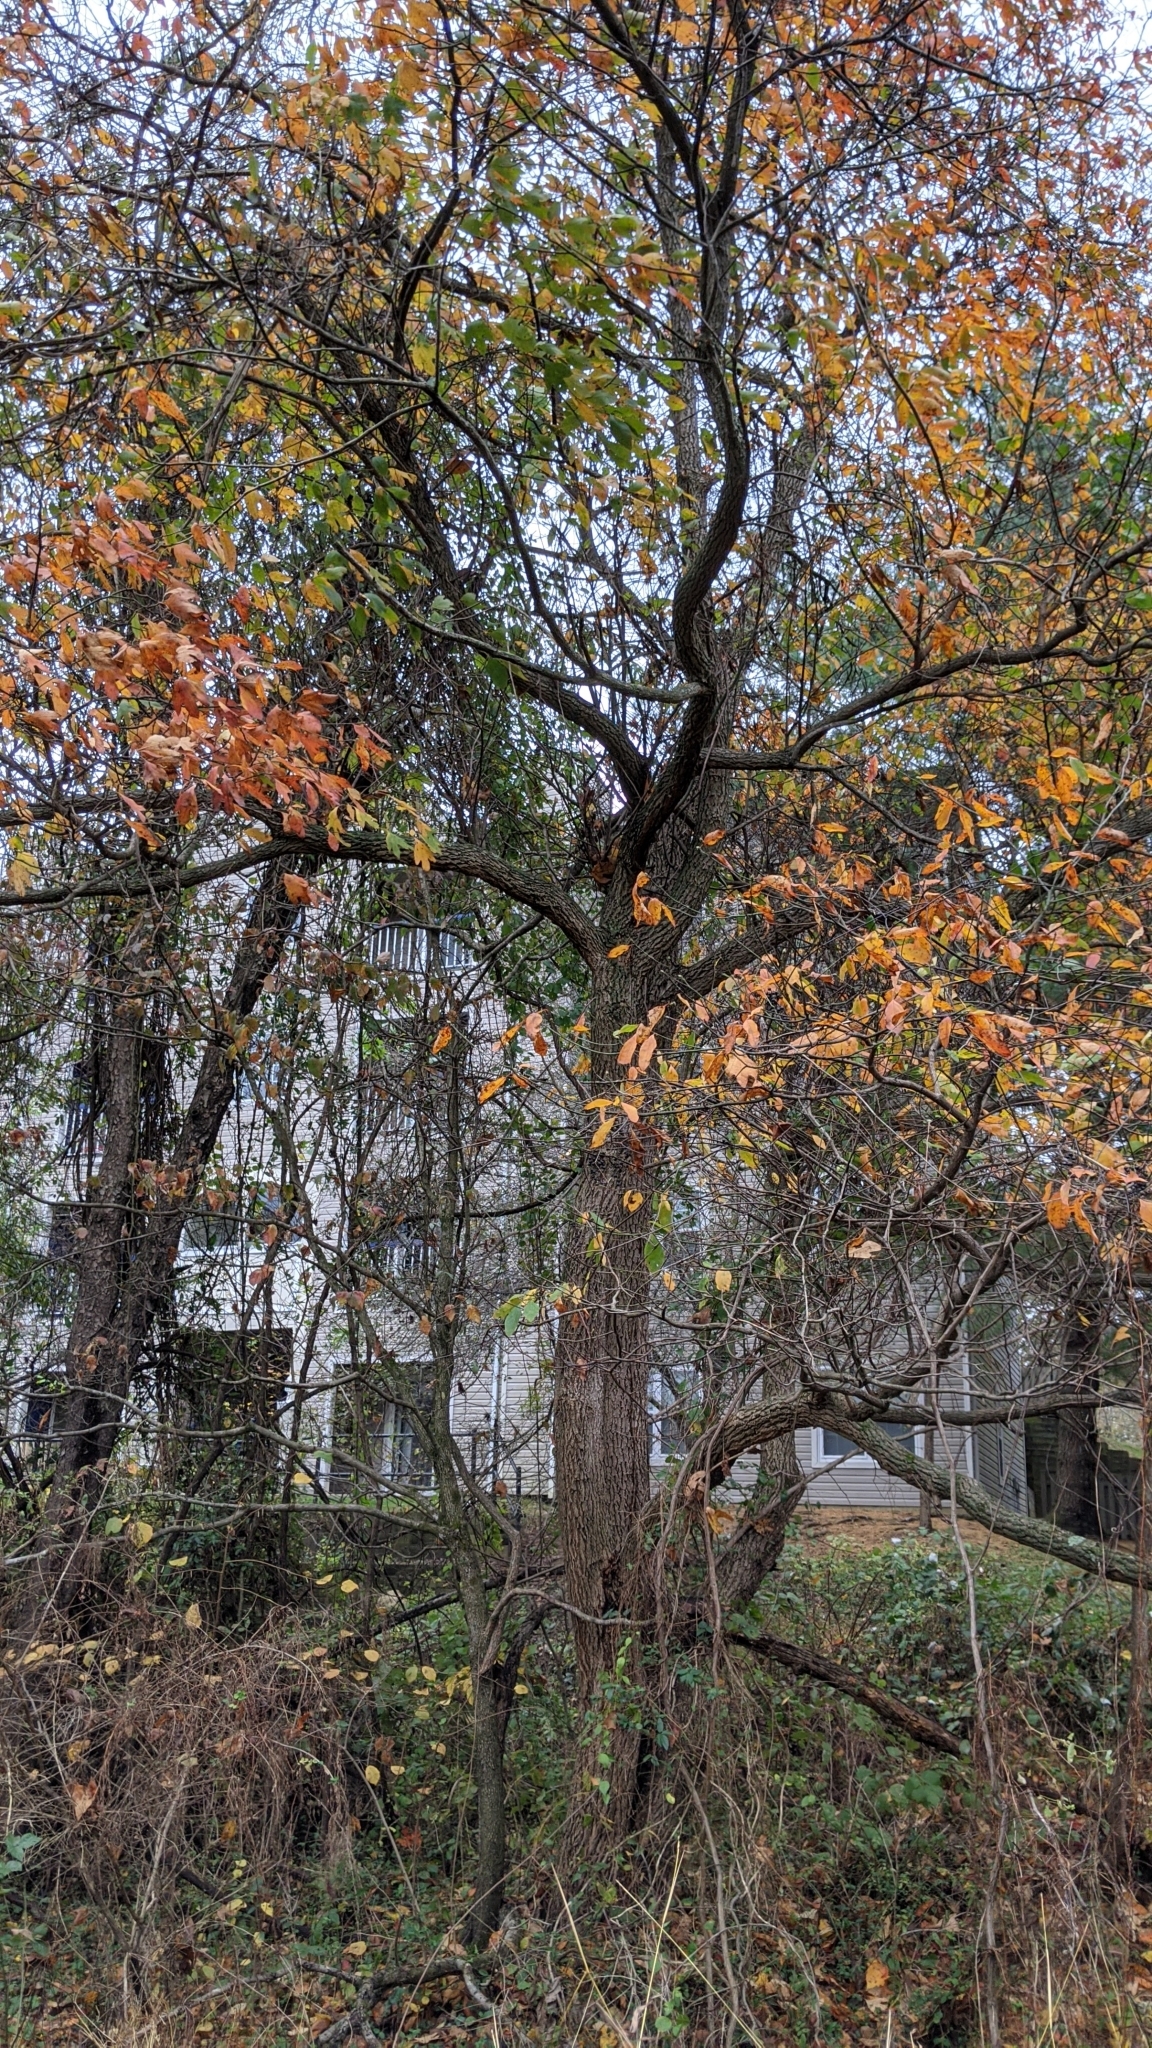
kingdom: Plantae
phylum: Tracheophyta
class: Magnoliopsida
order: Laurales
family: Lauraceae
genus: Sassafras
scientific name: Sassafras albidum
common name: Sassafras
